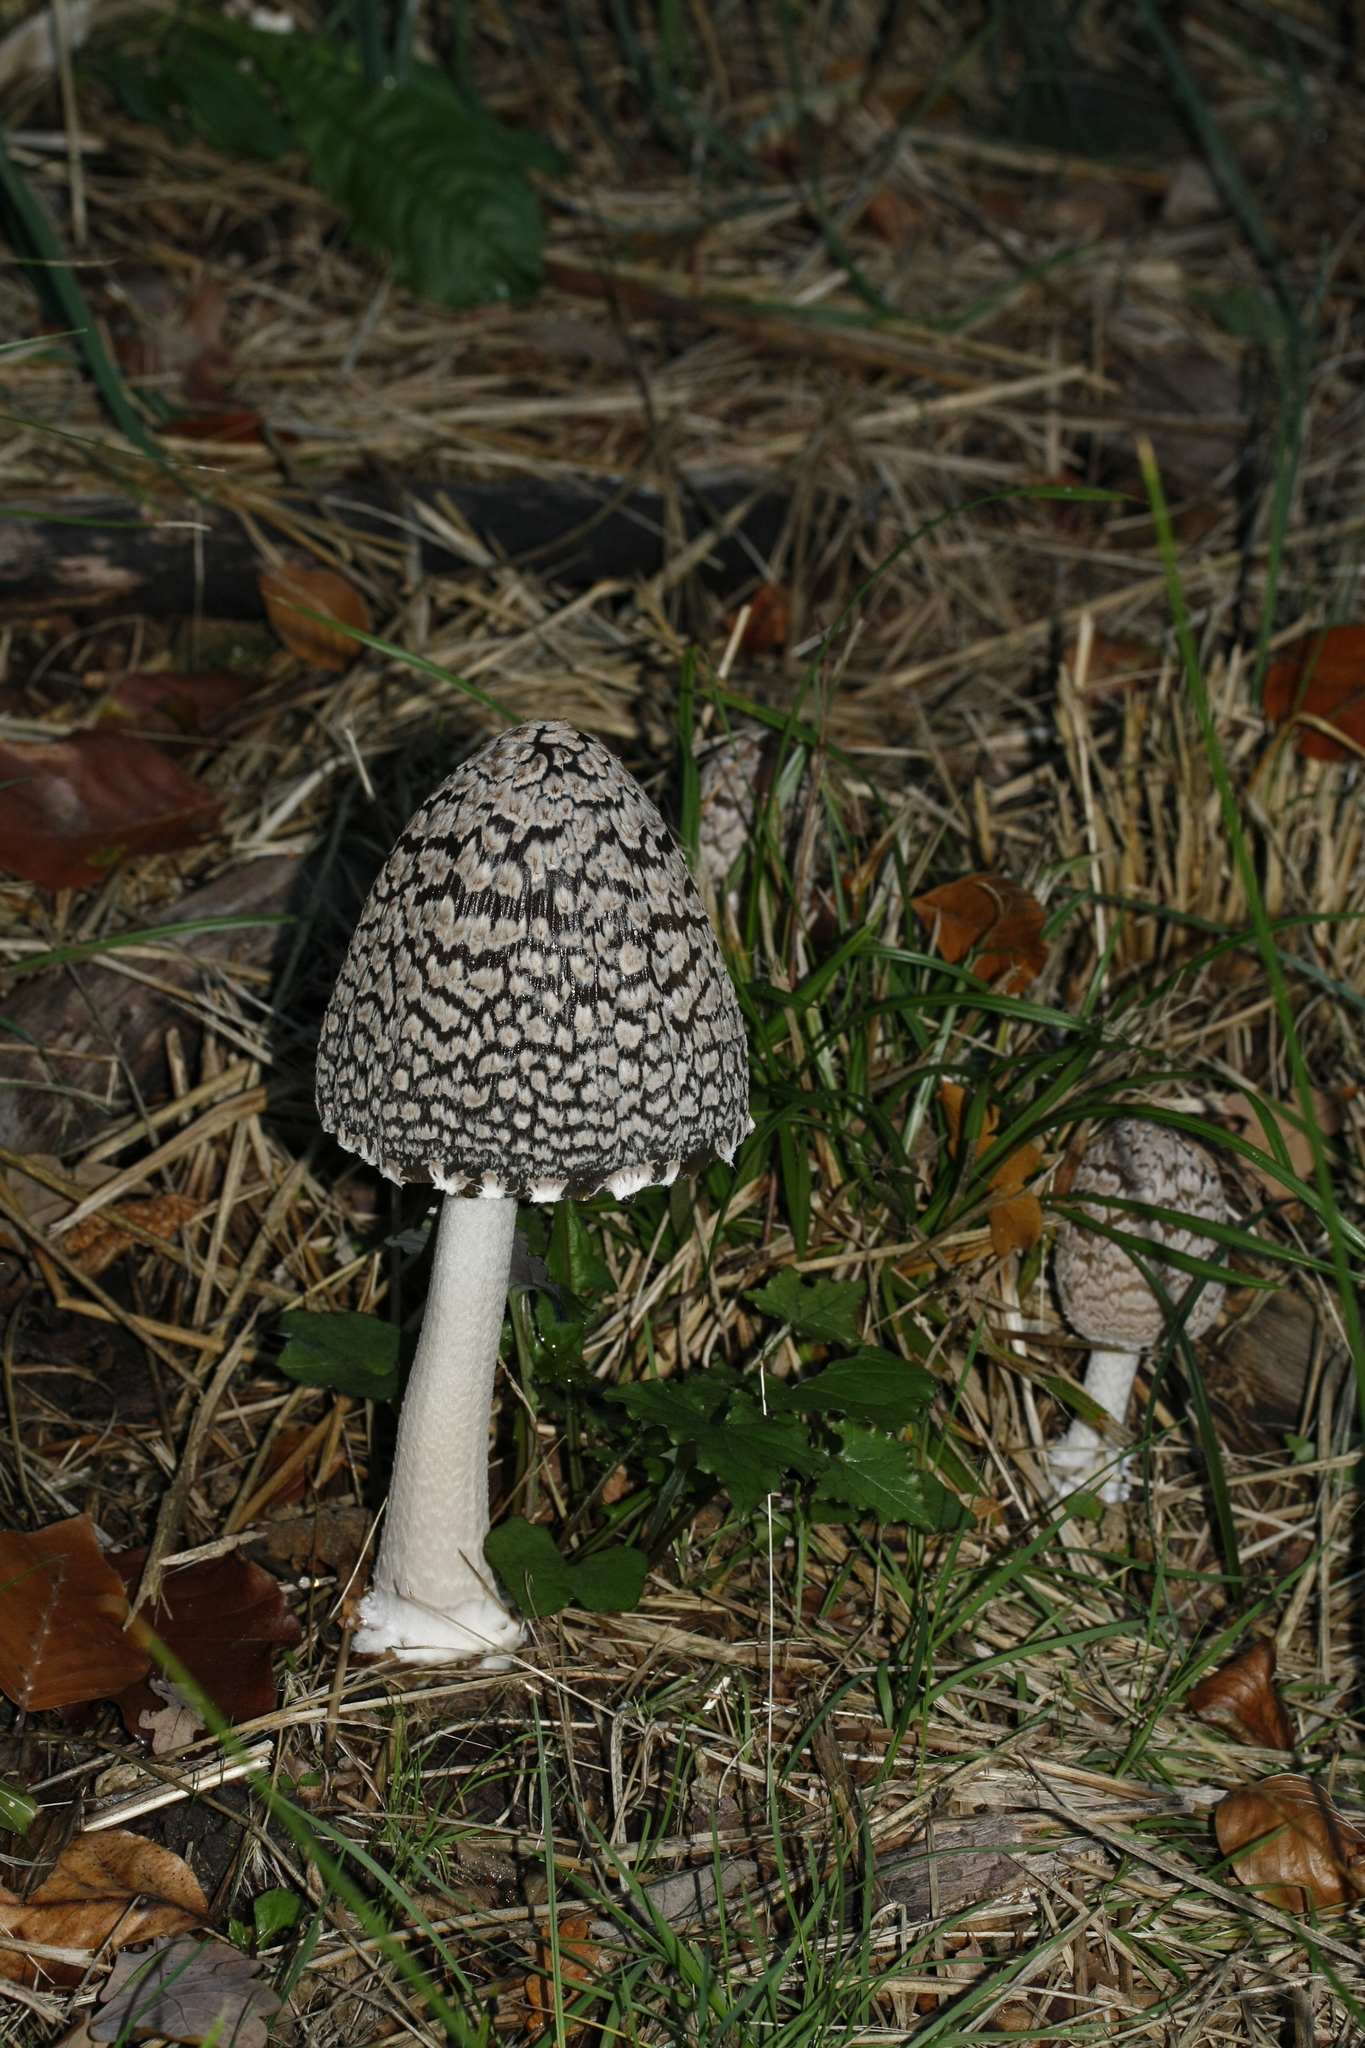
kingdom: Fungi
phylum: Basidiomycota
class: Agaricomycetes
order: Agaricales
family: Psathyrellaceae
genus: Coprinopsis
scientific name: Coprinopsis picacea
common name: Magpie inkcap
